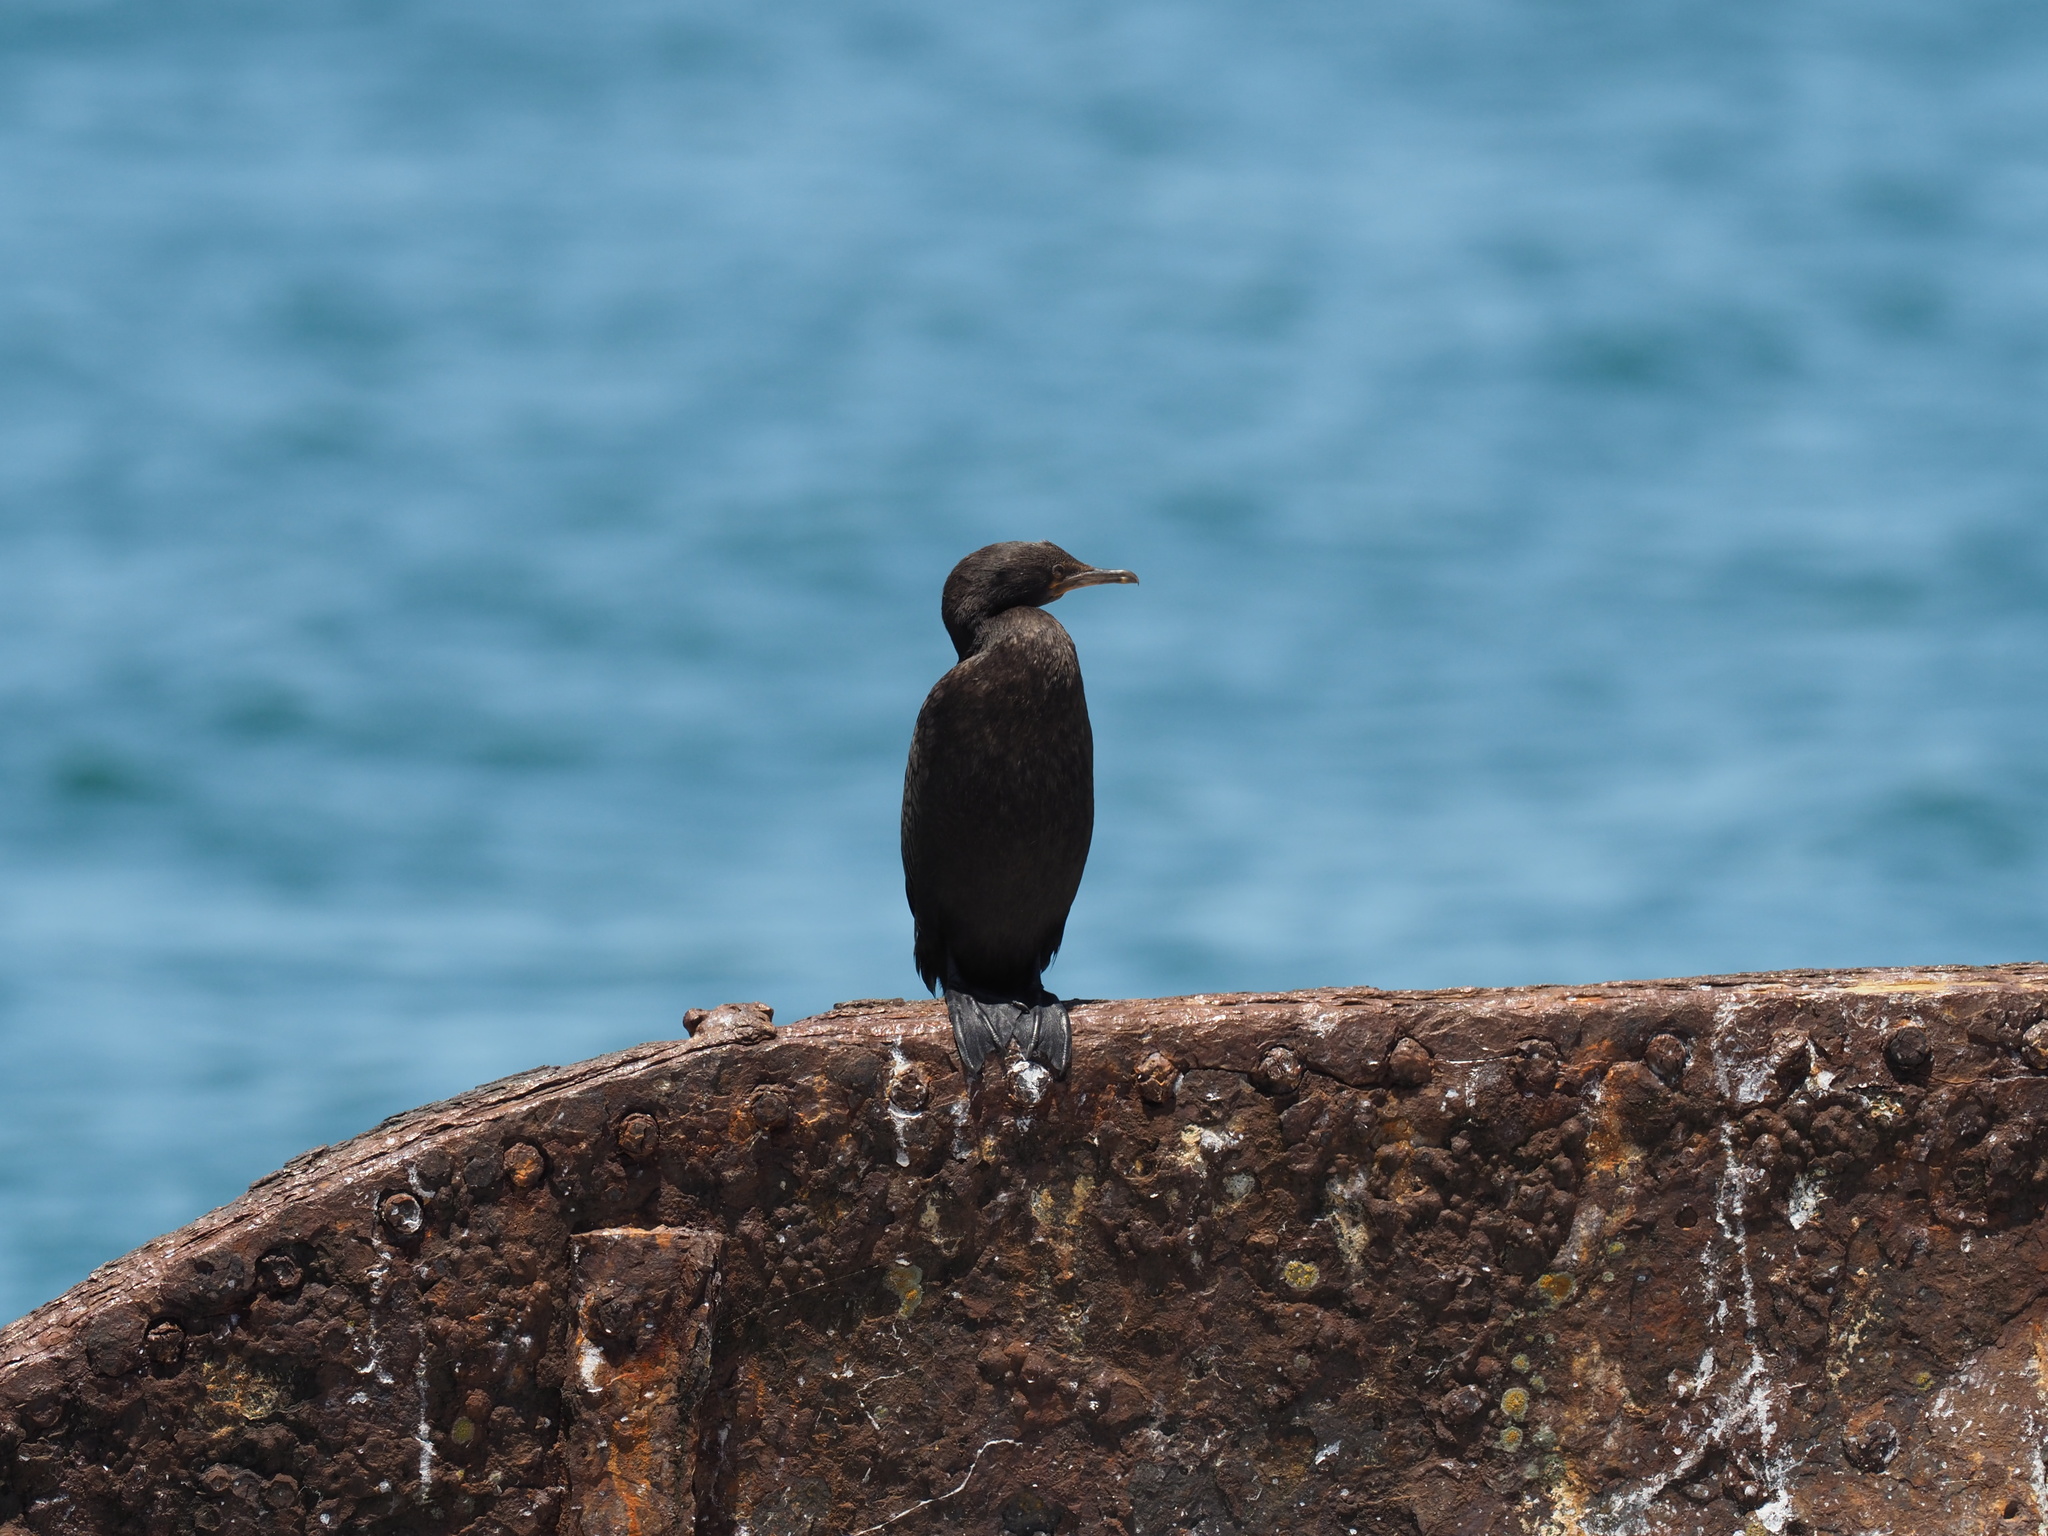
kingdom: Animalia
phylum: Chordata
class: Aves
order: Suliformes
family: Phalacrocoracidae
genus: Phalacrocorax
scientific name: Phalacrocorax capensis
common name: Cape cormorant
